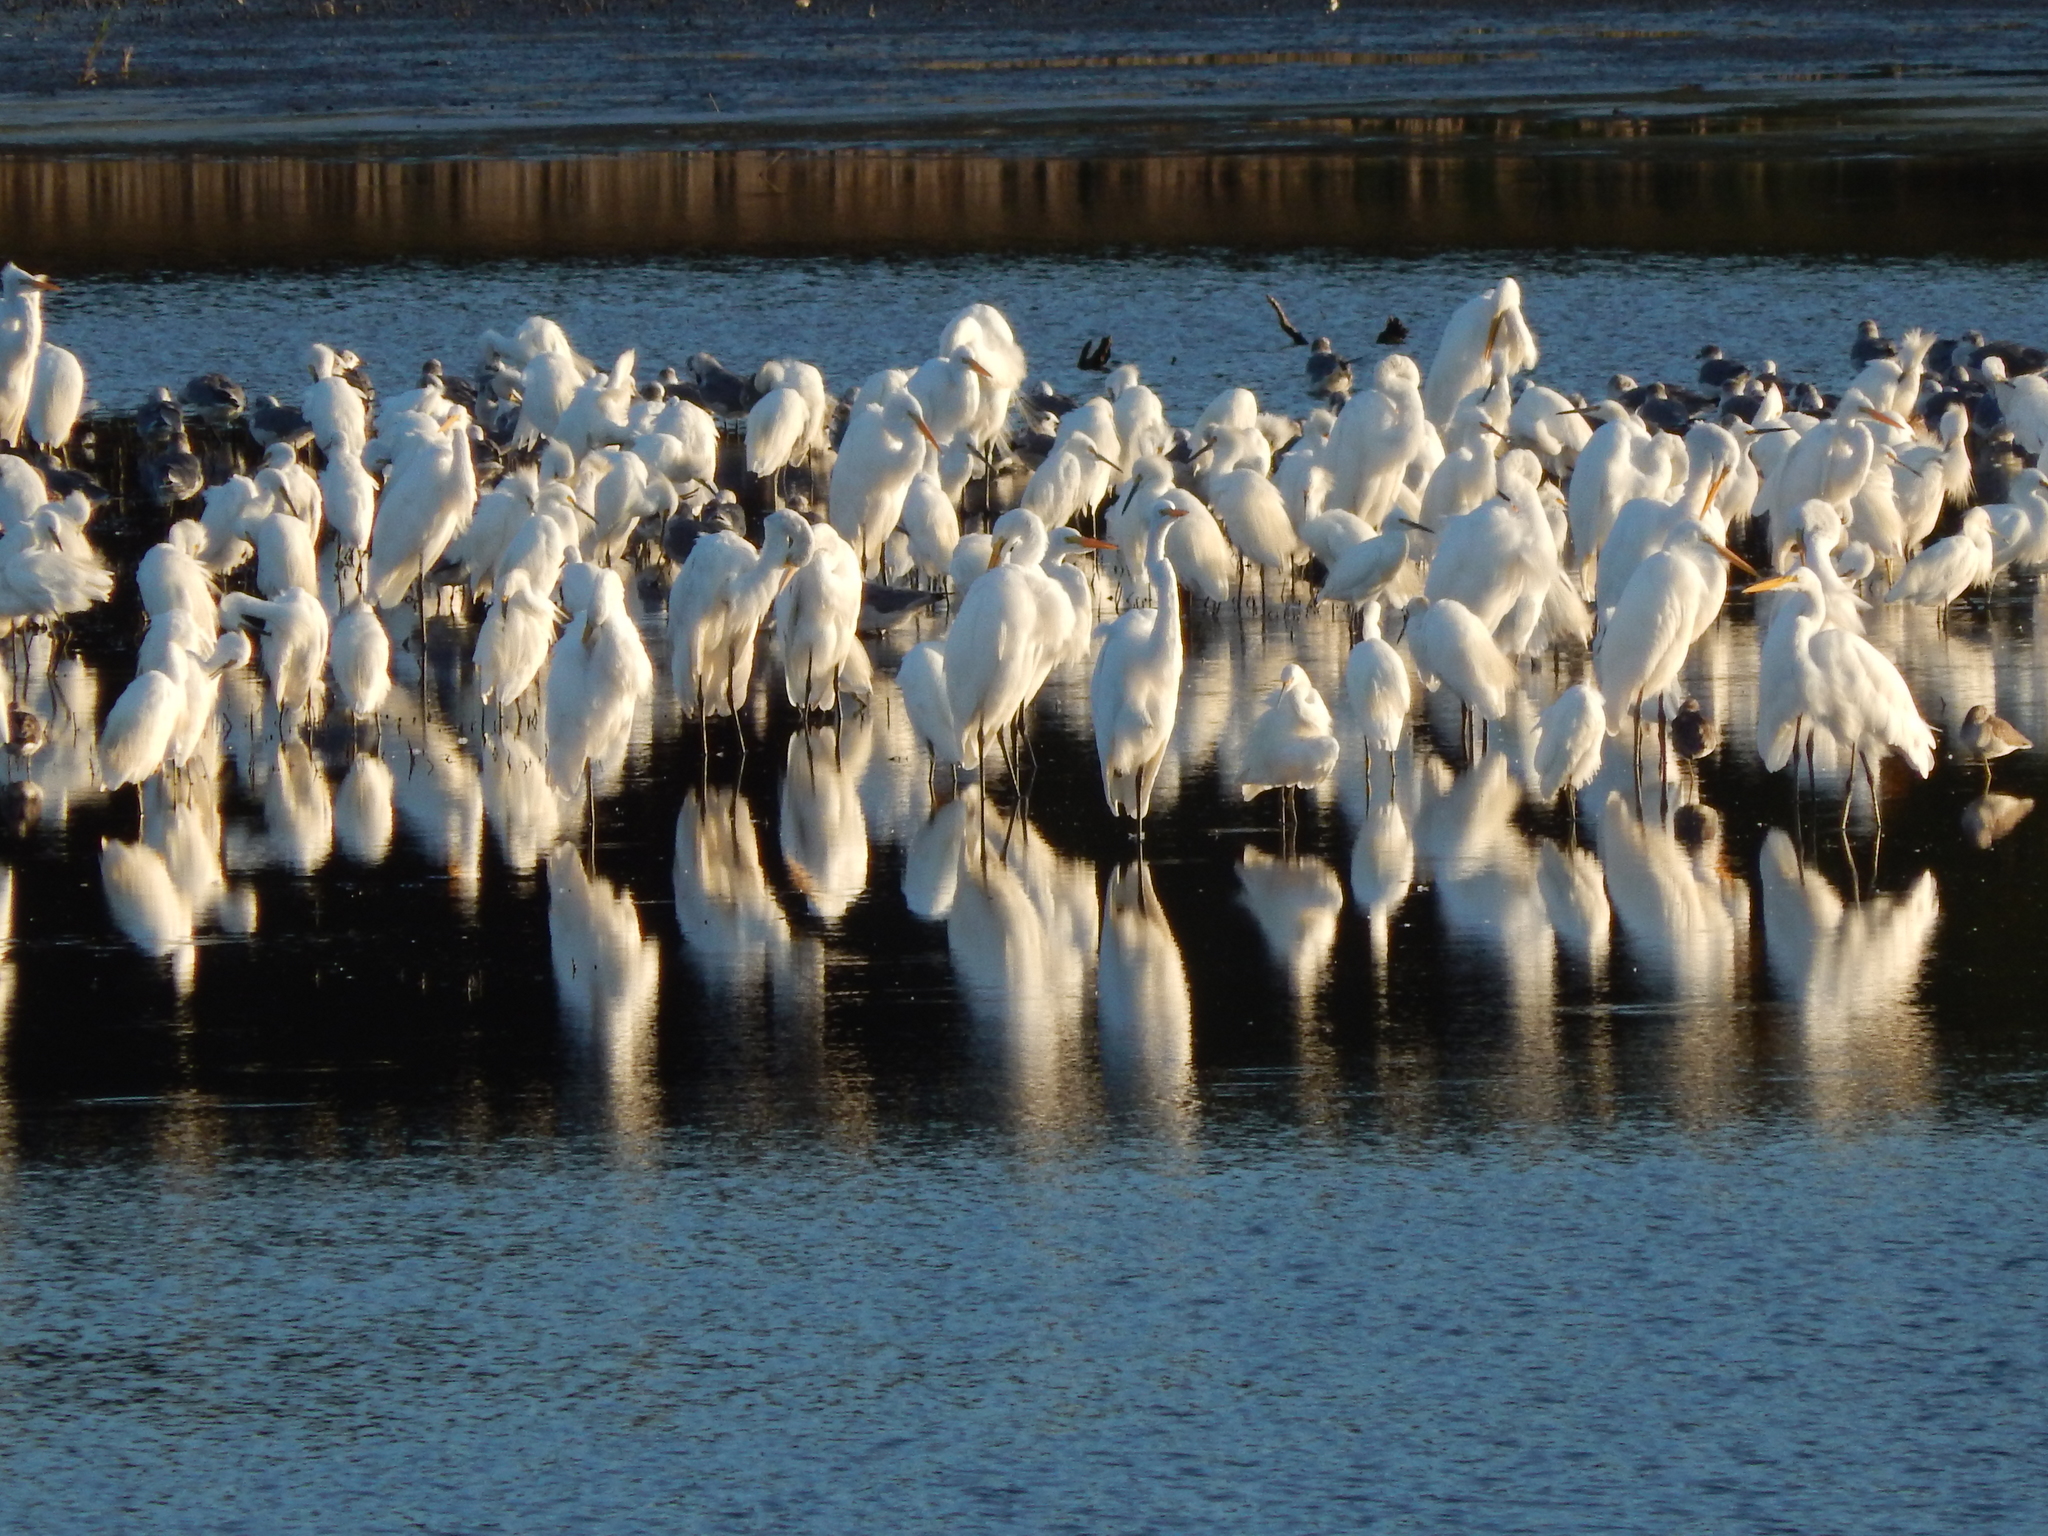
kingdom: Animalia
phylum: Chordata
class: Aves
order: Pelecaniformes
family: Ardeidae
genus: Ardea
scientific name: Ardea alba
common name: Great egret
